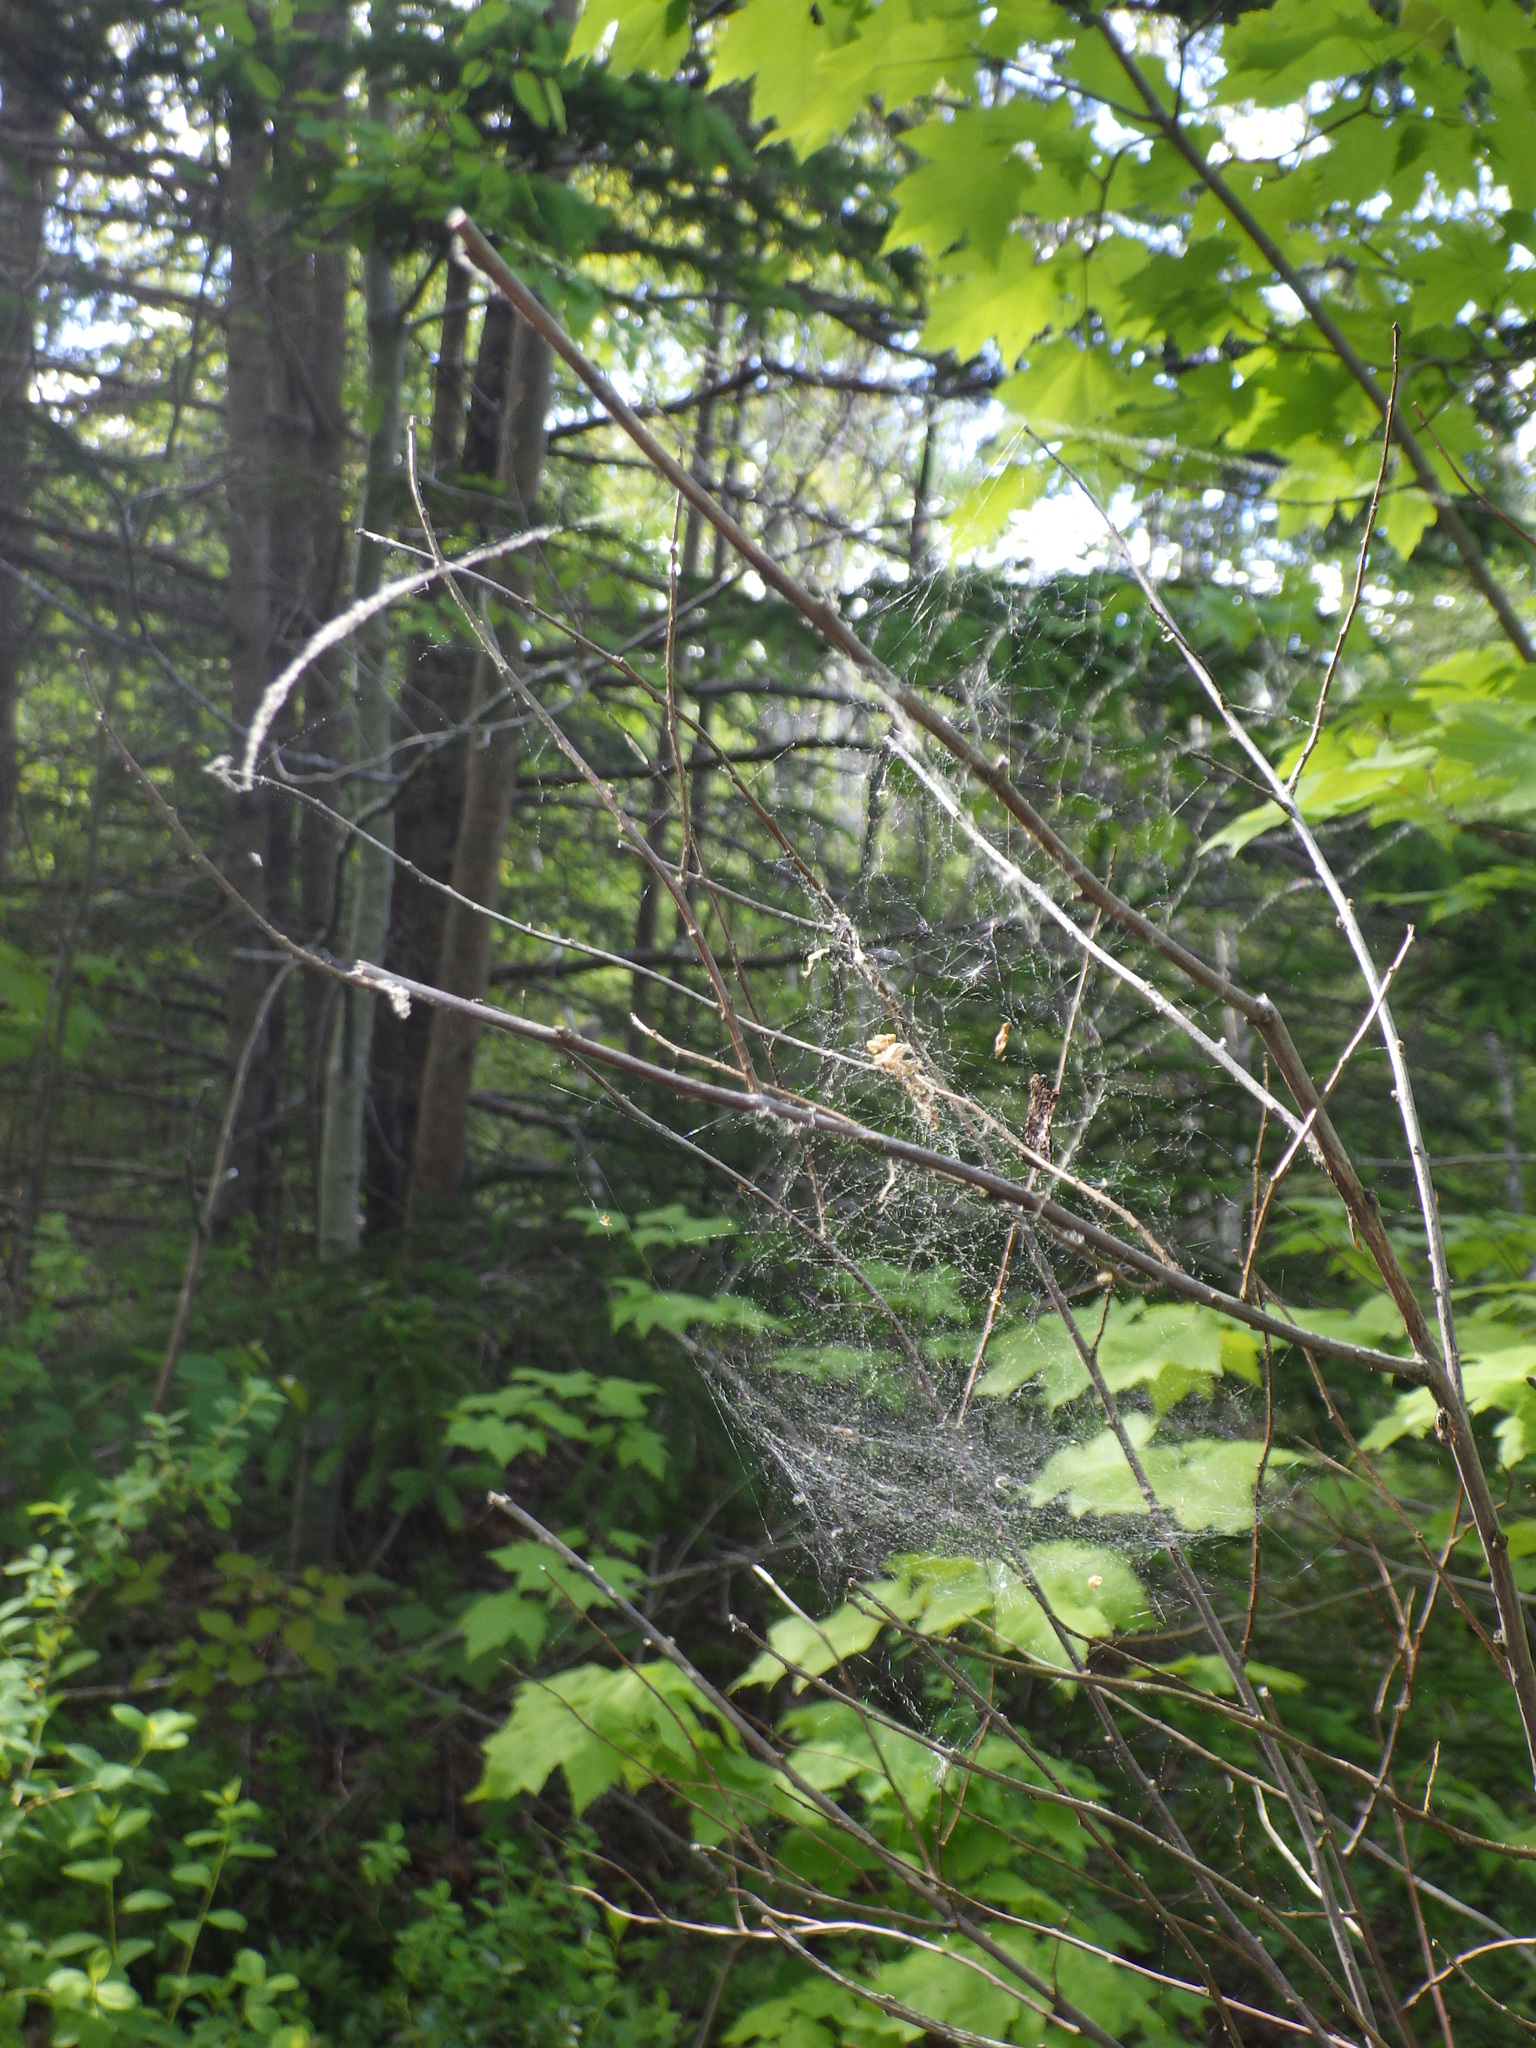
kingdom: Animalia
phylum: Arthropoda
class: Arachnida
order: Araneae
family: Linyphiidae
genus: Frontinella
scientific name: Frontinella pyramitela
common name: Bowl-and-doily spider
